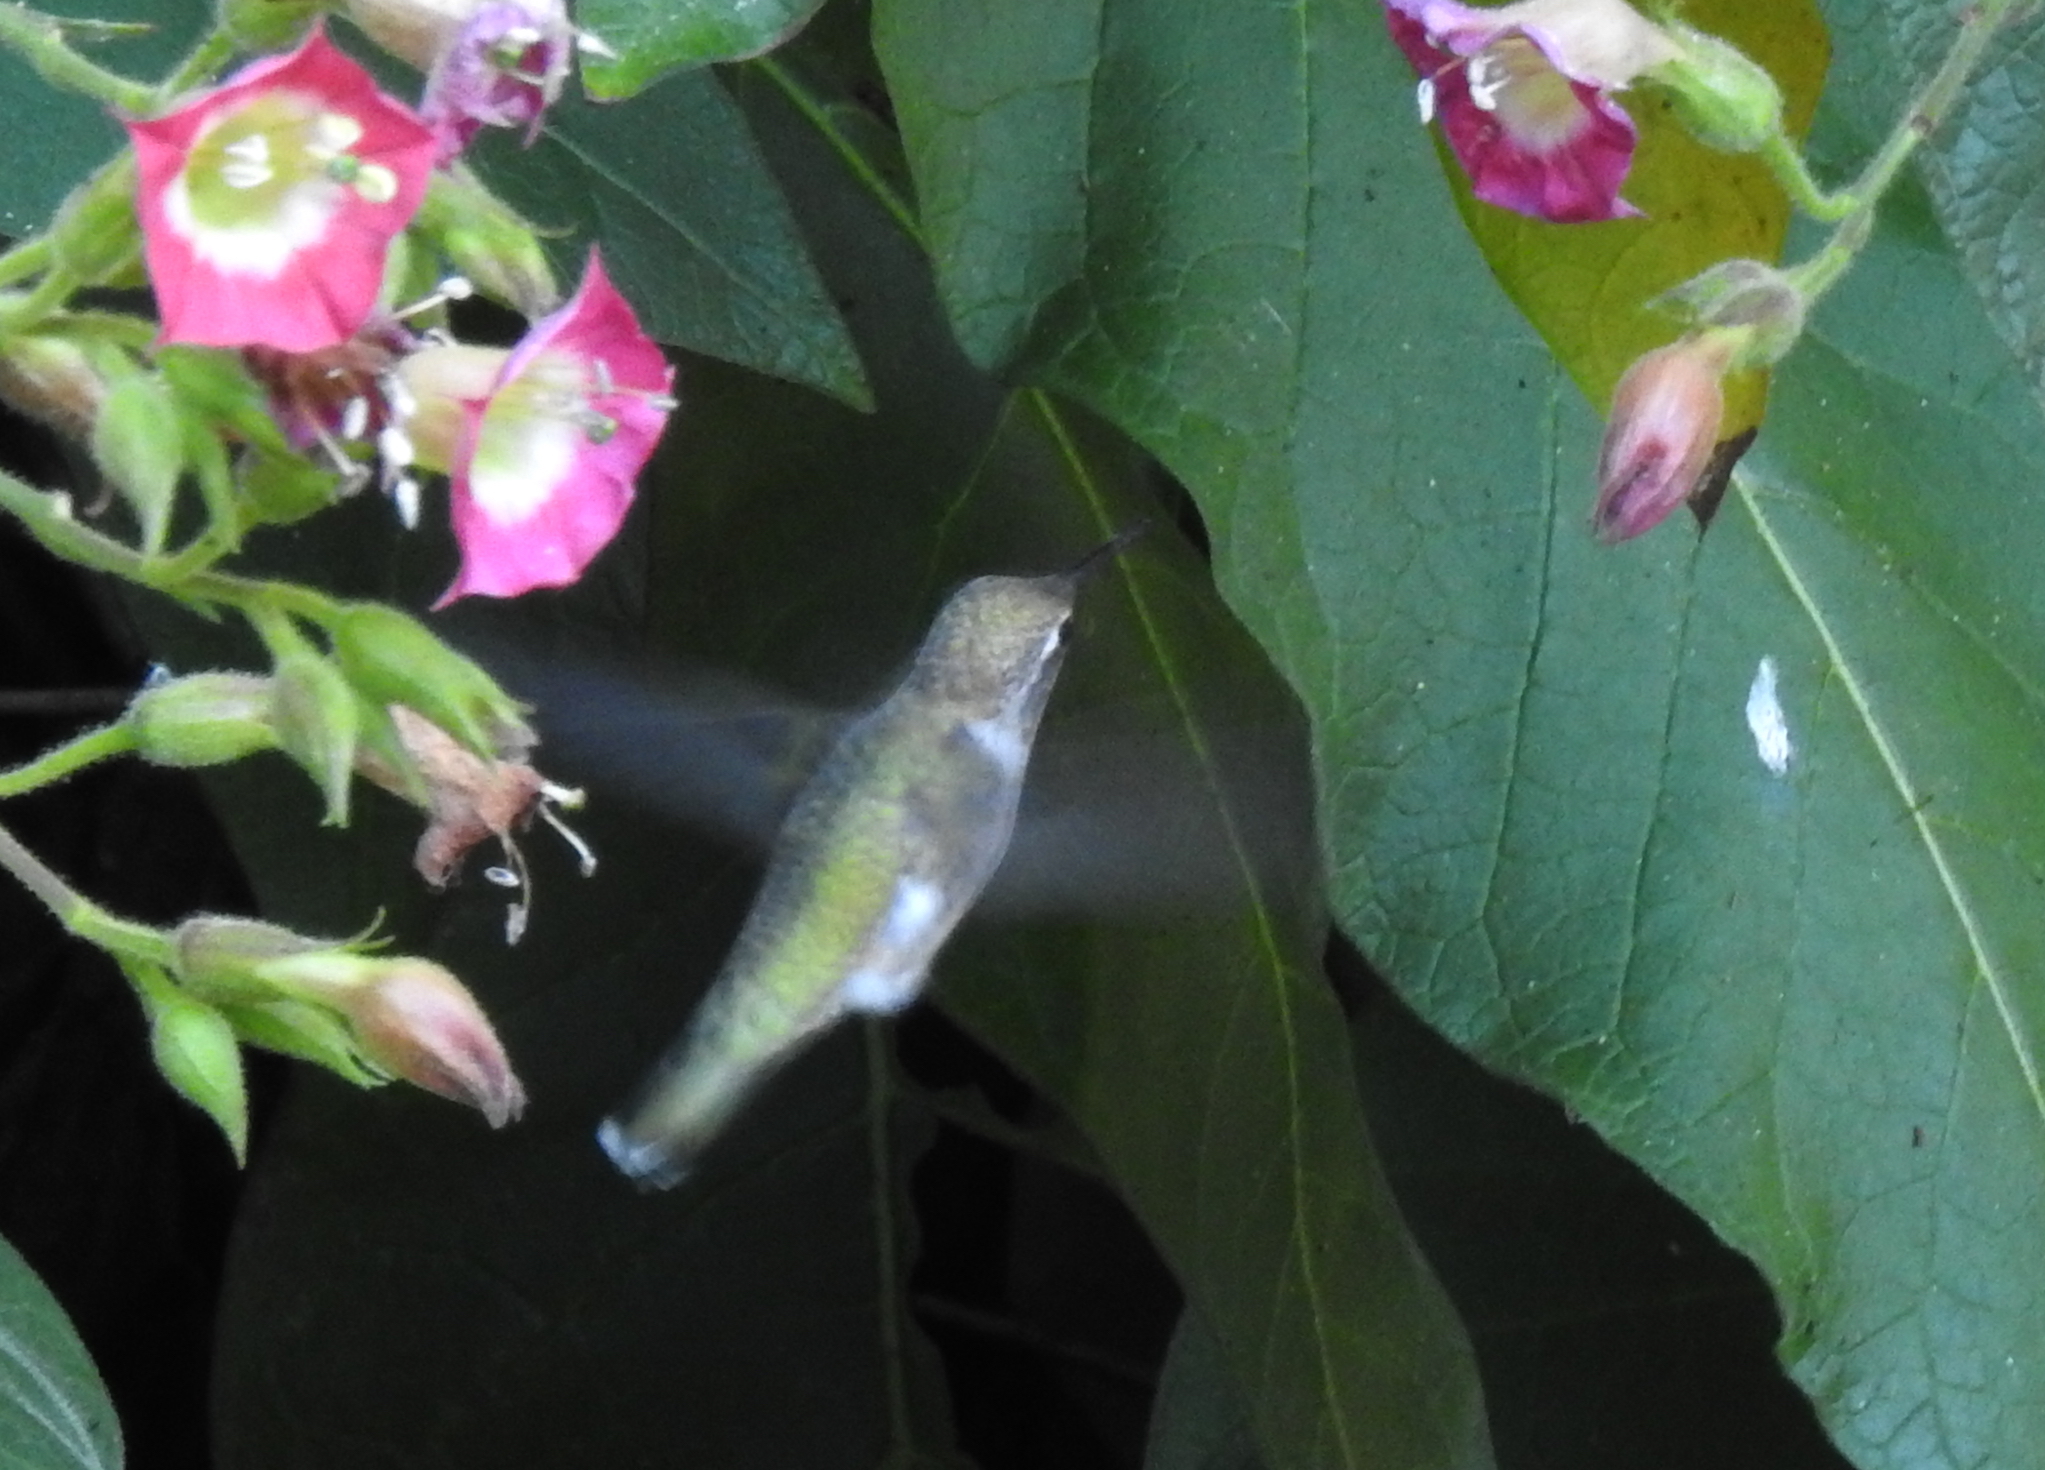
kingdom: Animalia
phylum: Chordata
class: Aves
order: Apodiformes
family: Trochilidae
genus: Calypte
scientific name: Calypte anna
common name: Anna's hummingbird
